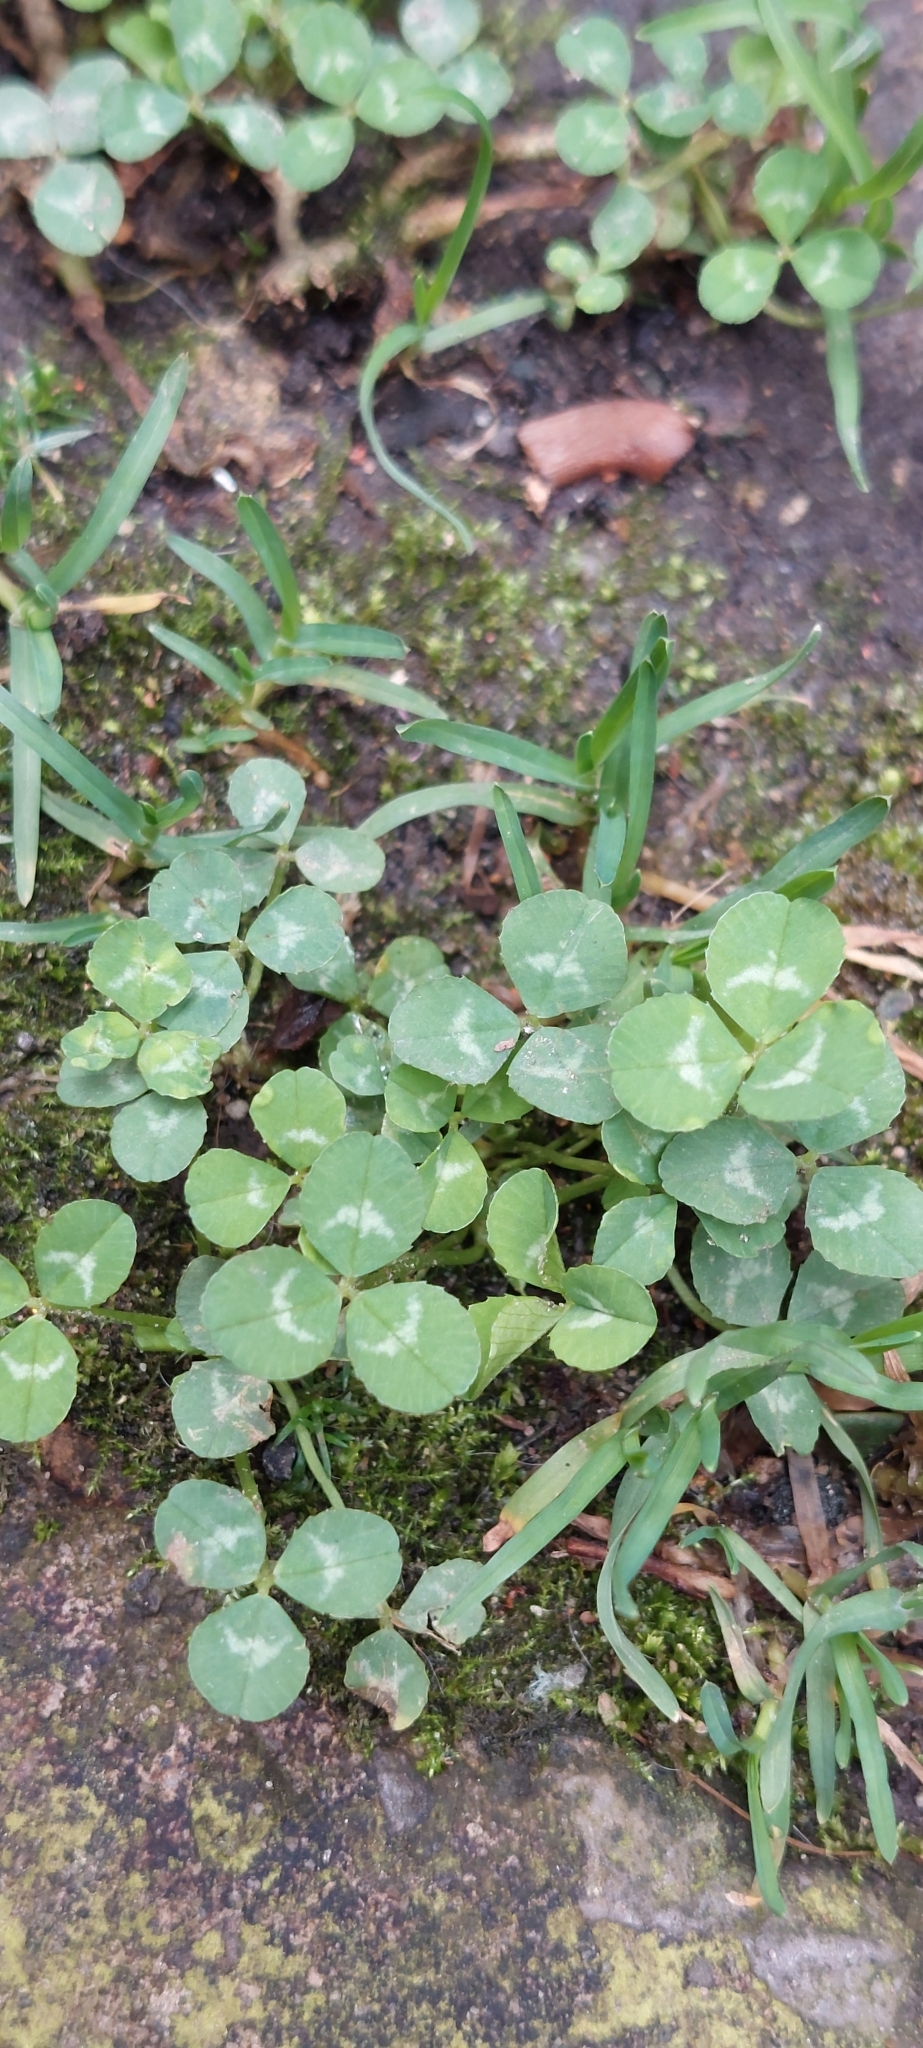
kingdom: Plantae
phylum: Tracheophyta
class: Magnoliopsida
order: Fabales
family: Fabaceae
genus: Trifolium
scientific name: Trifolium repens
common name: White clover
